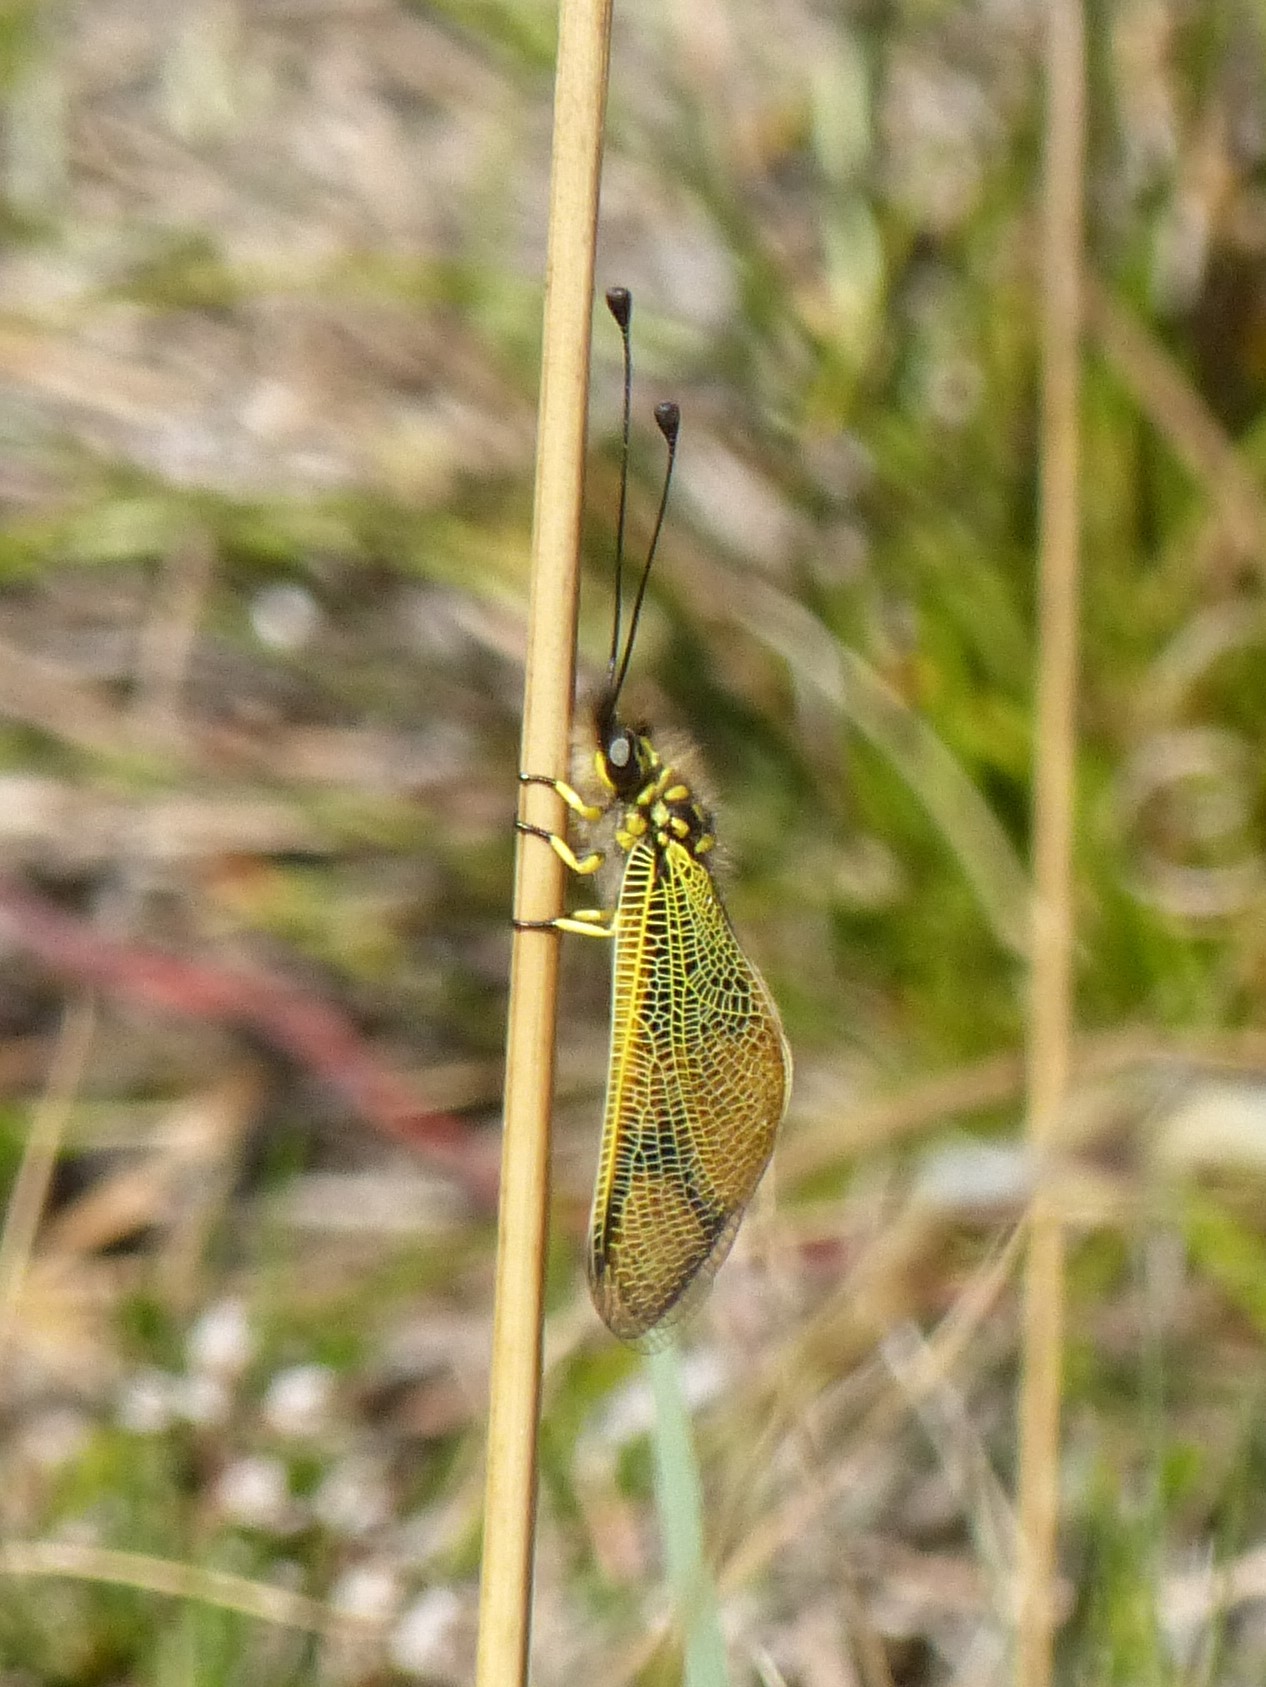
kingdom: Animalia
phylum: Arthropoda
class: Insecta
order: Neuroptera
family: Ascalaphidae
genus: Libelloides
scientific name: Libelloides longicornis
